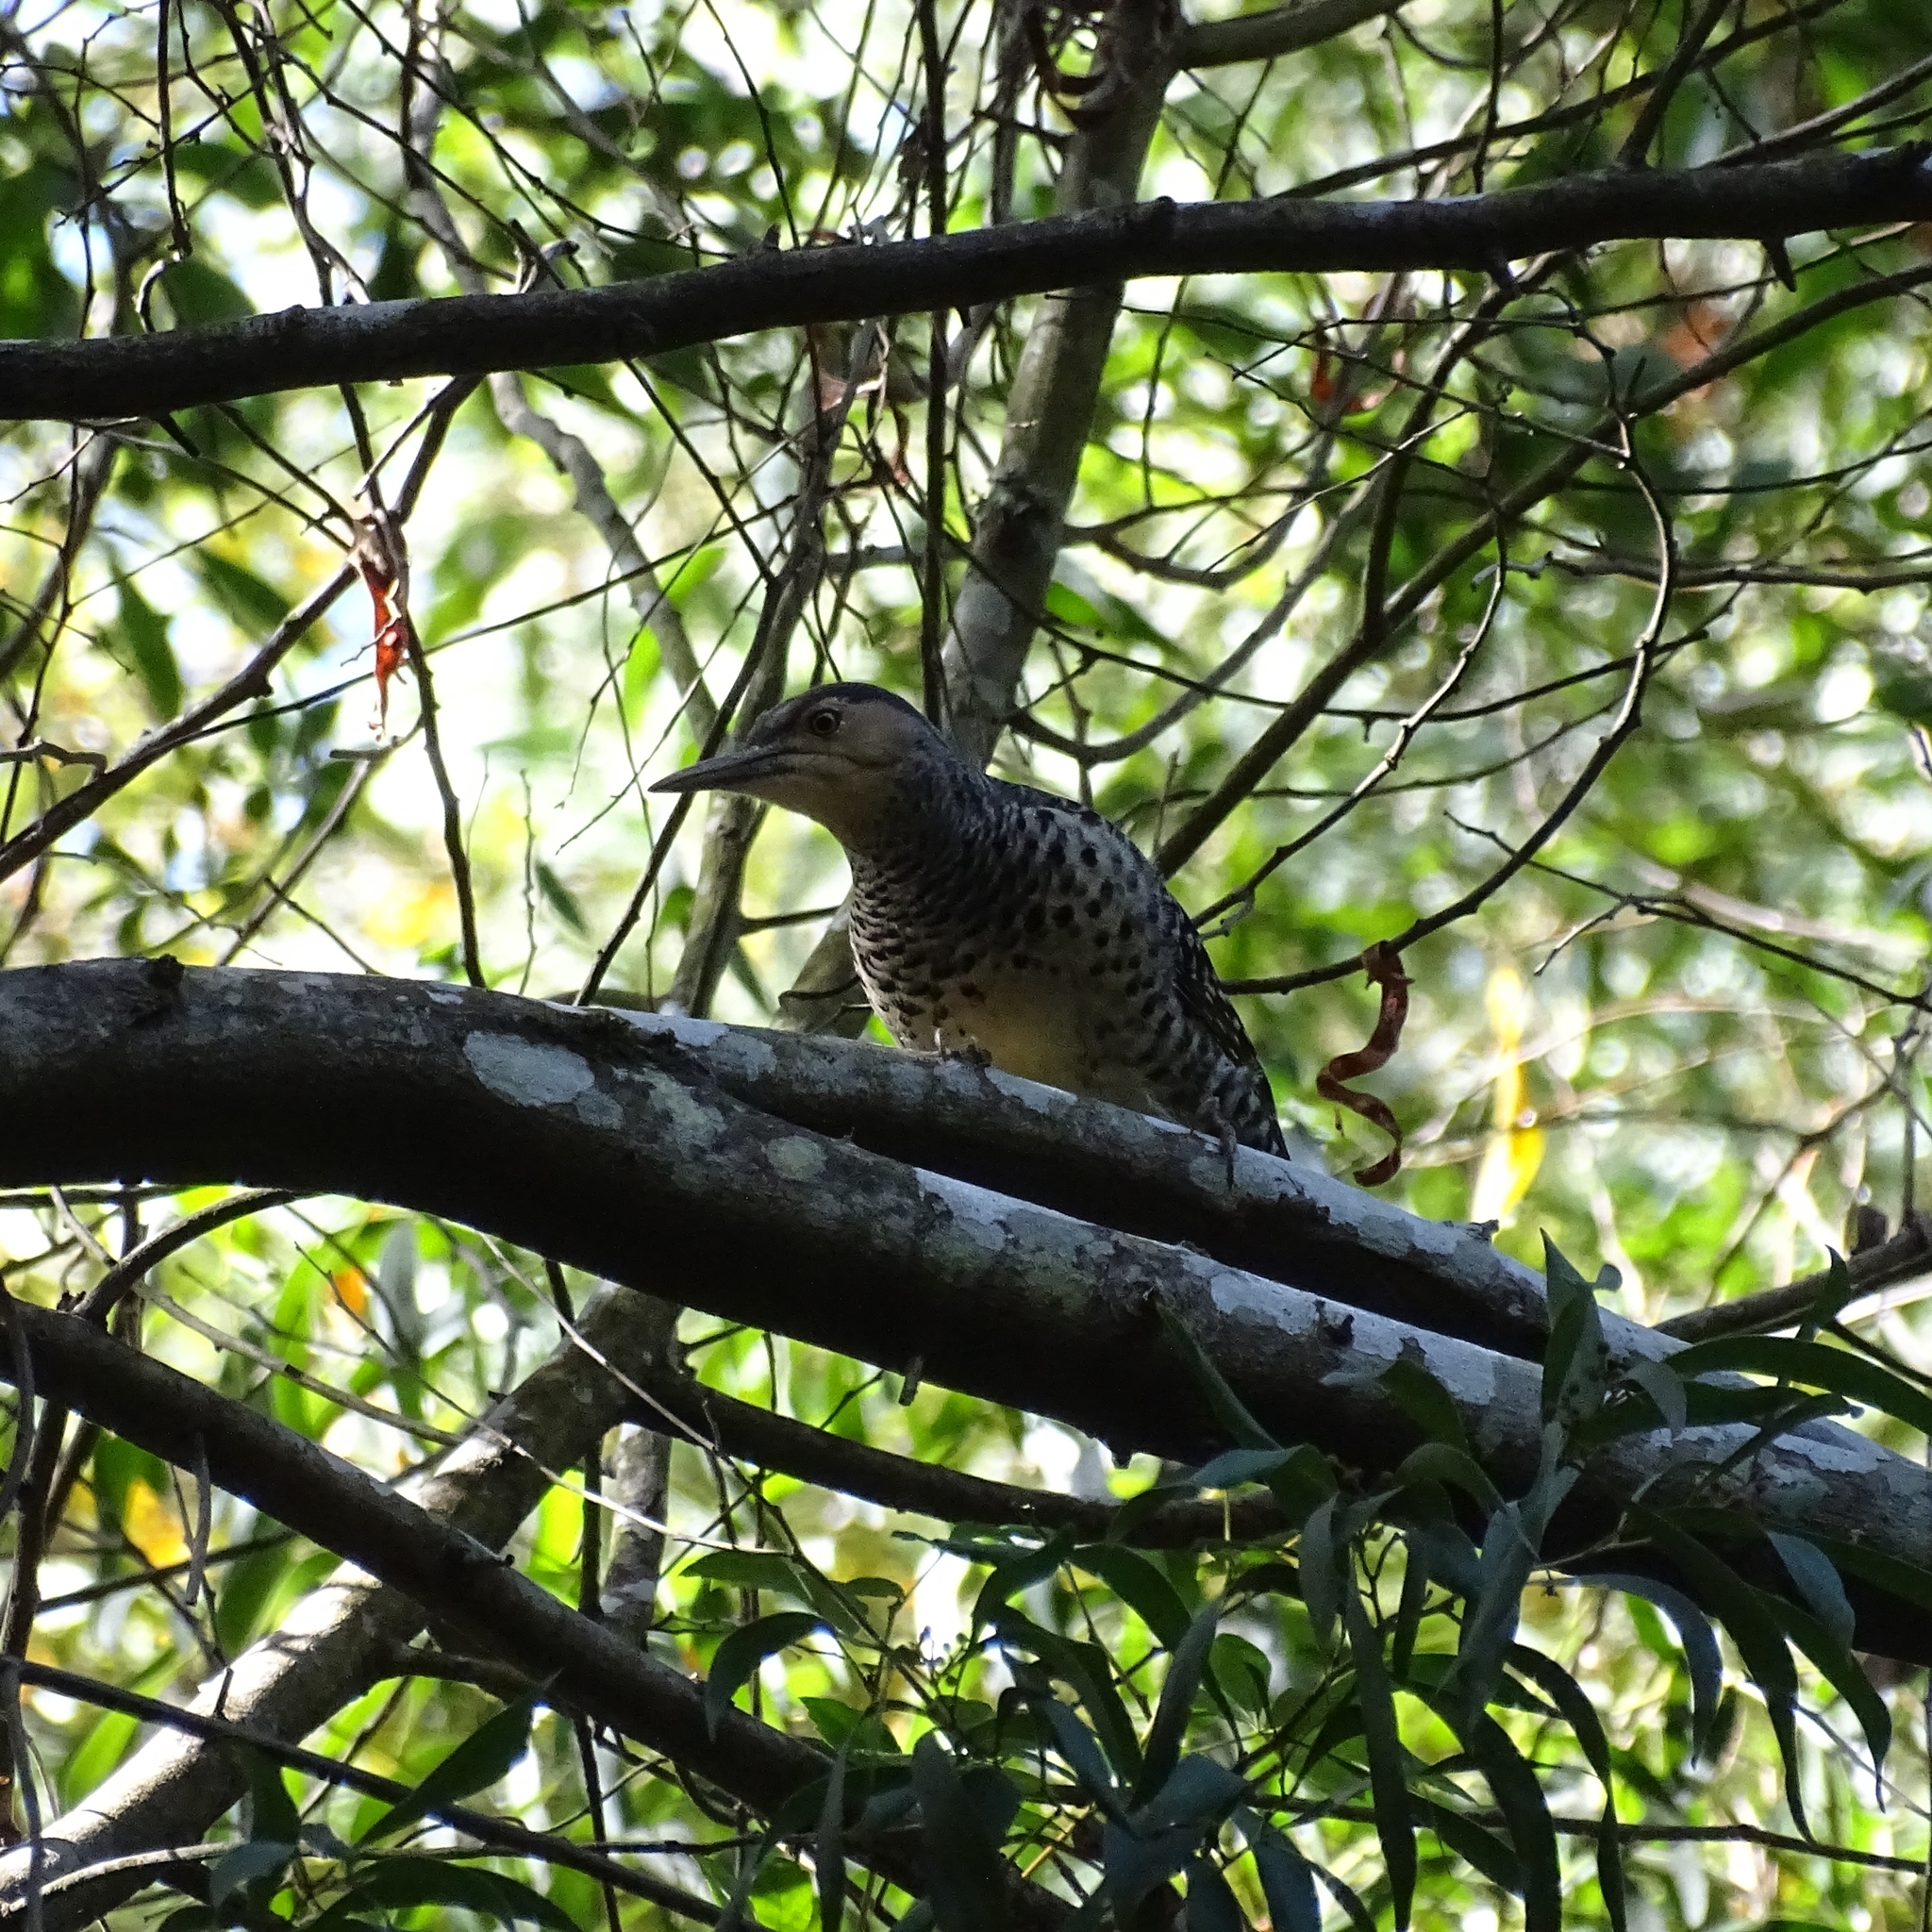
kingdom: Animalia
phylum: Chordata
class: Aves
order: Piciformes
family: Picidae
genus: Colaptes
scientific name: Colaptes pitius
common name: Chilean flicker
